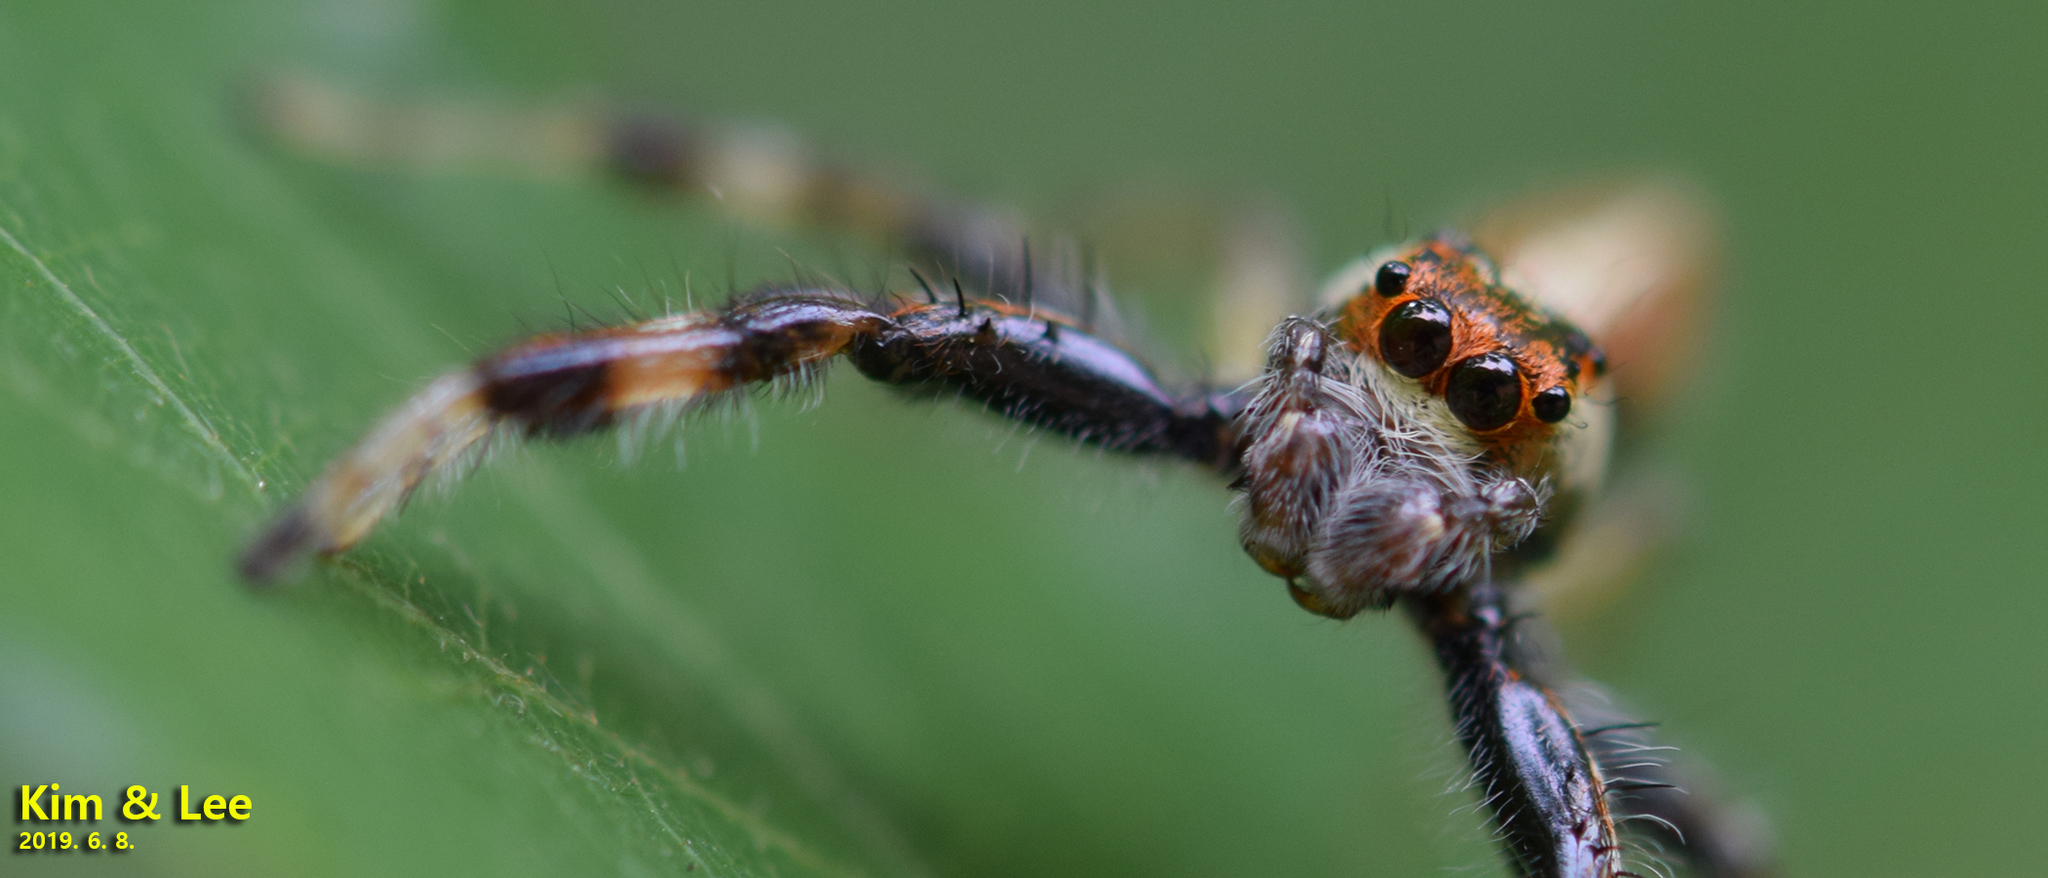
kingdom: Animalia
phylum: Arthropoda
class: Arachnida
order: Araneae
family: Salticidae
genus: Telamonia
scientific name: Telamonia vlijmi
